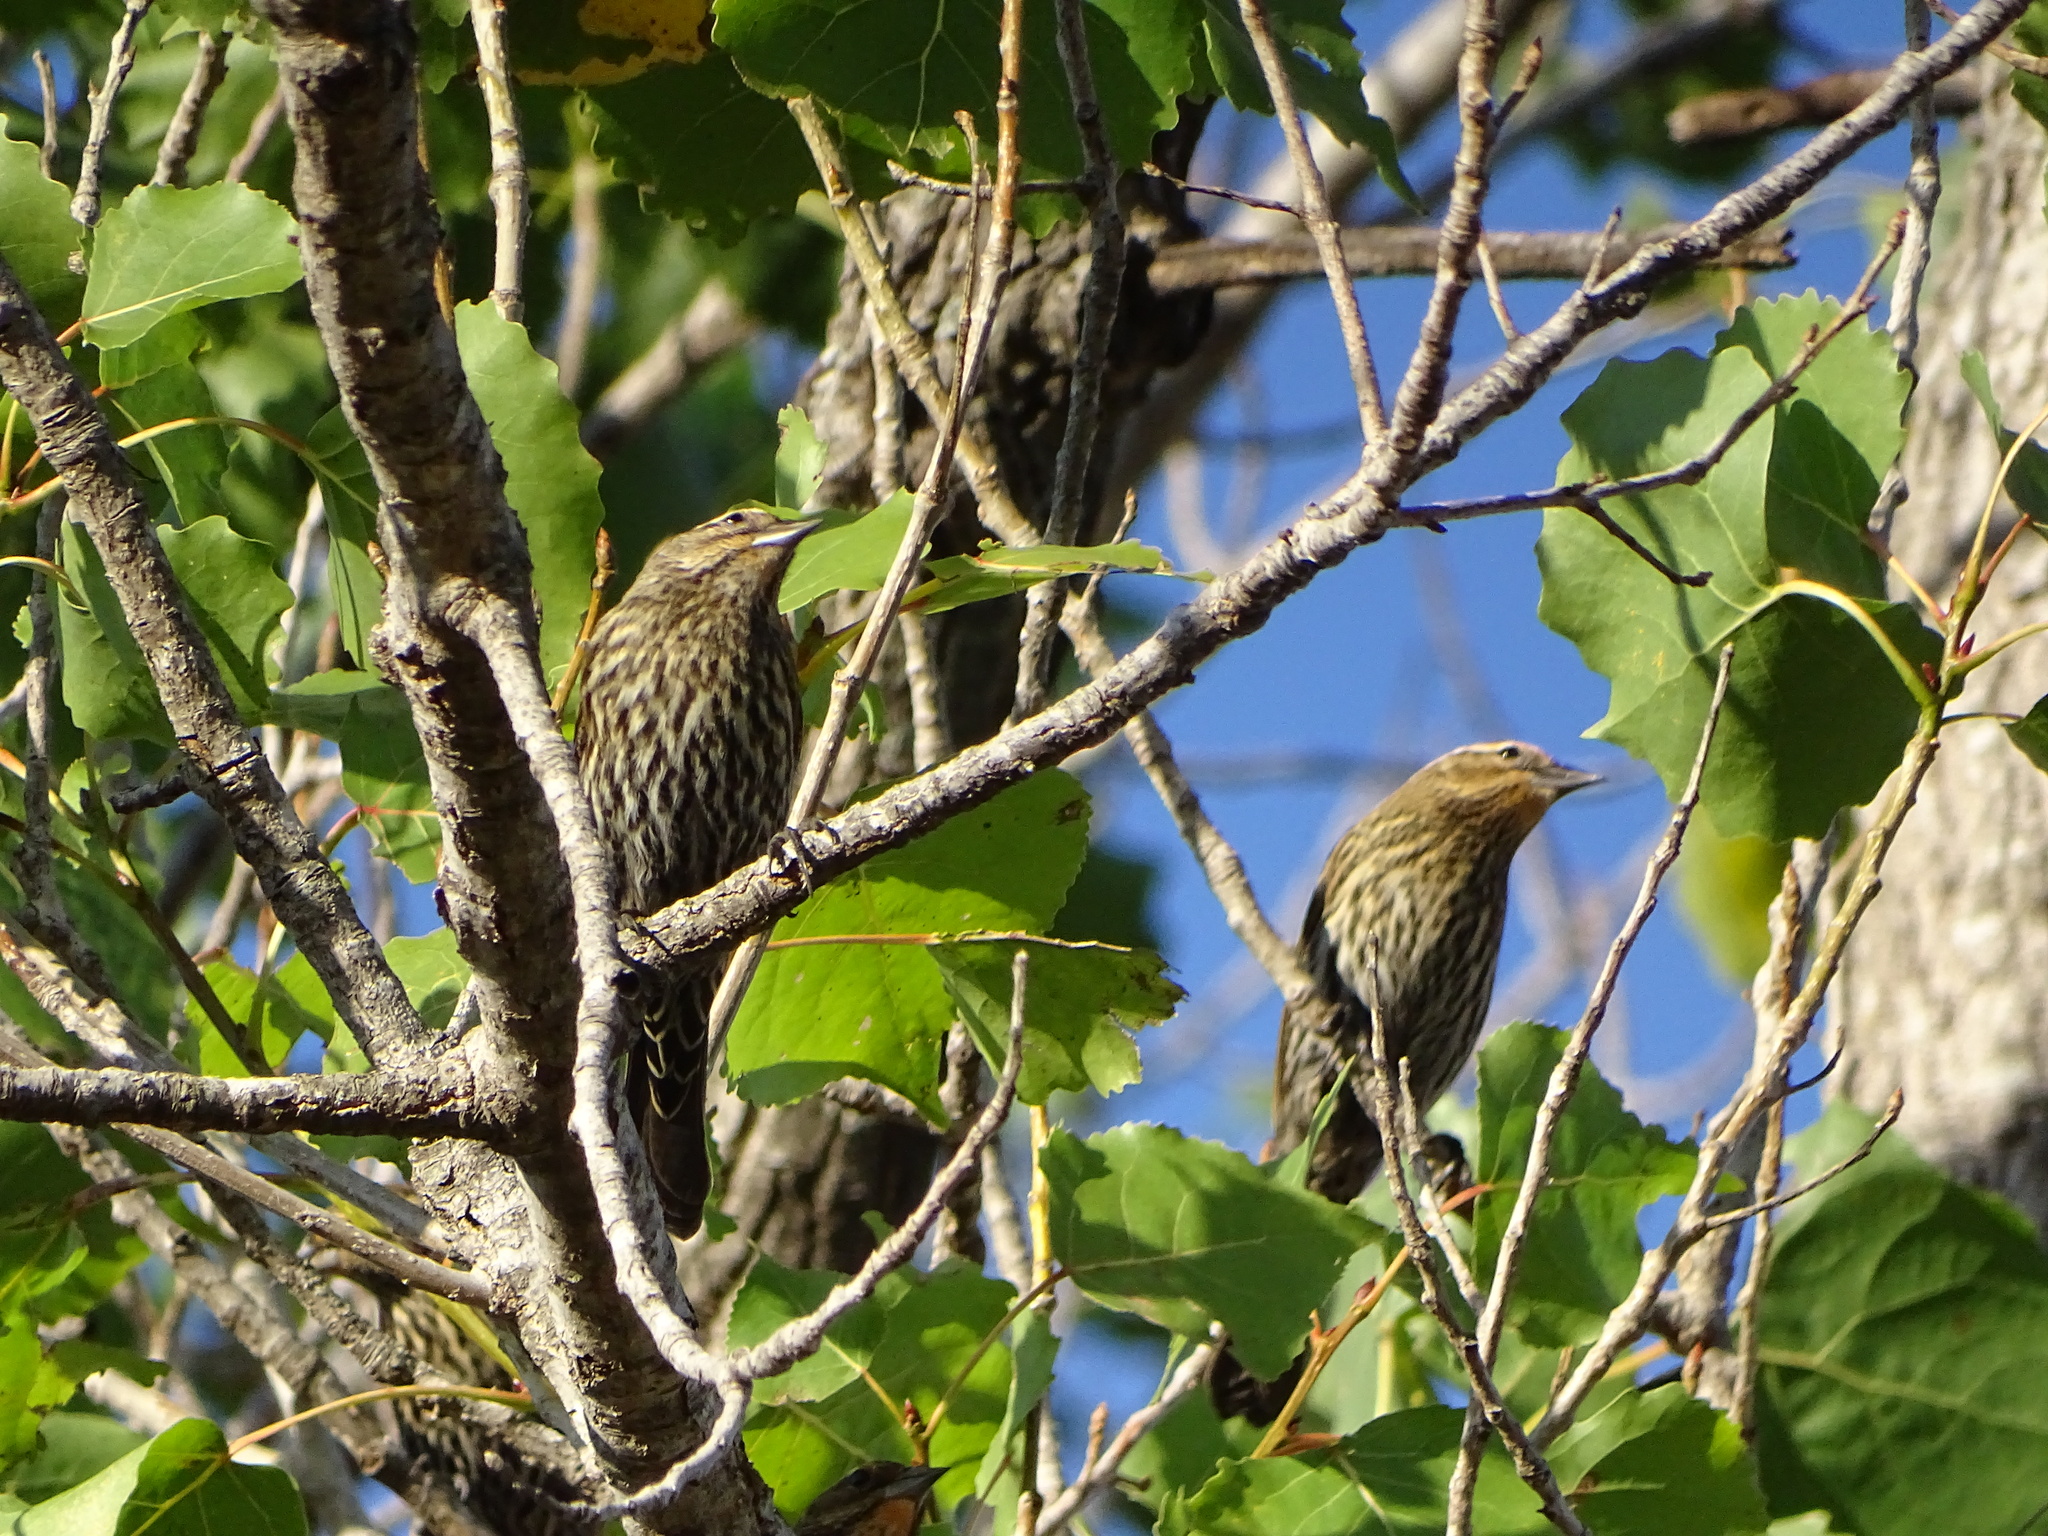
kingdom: Animalia
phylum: Chordata
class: Aves
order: Passeriformes
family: Icteridae
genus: Agelaius
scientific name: Agelaius phoeniceus
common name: Red-winged blackbird
